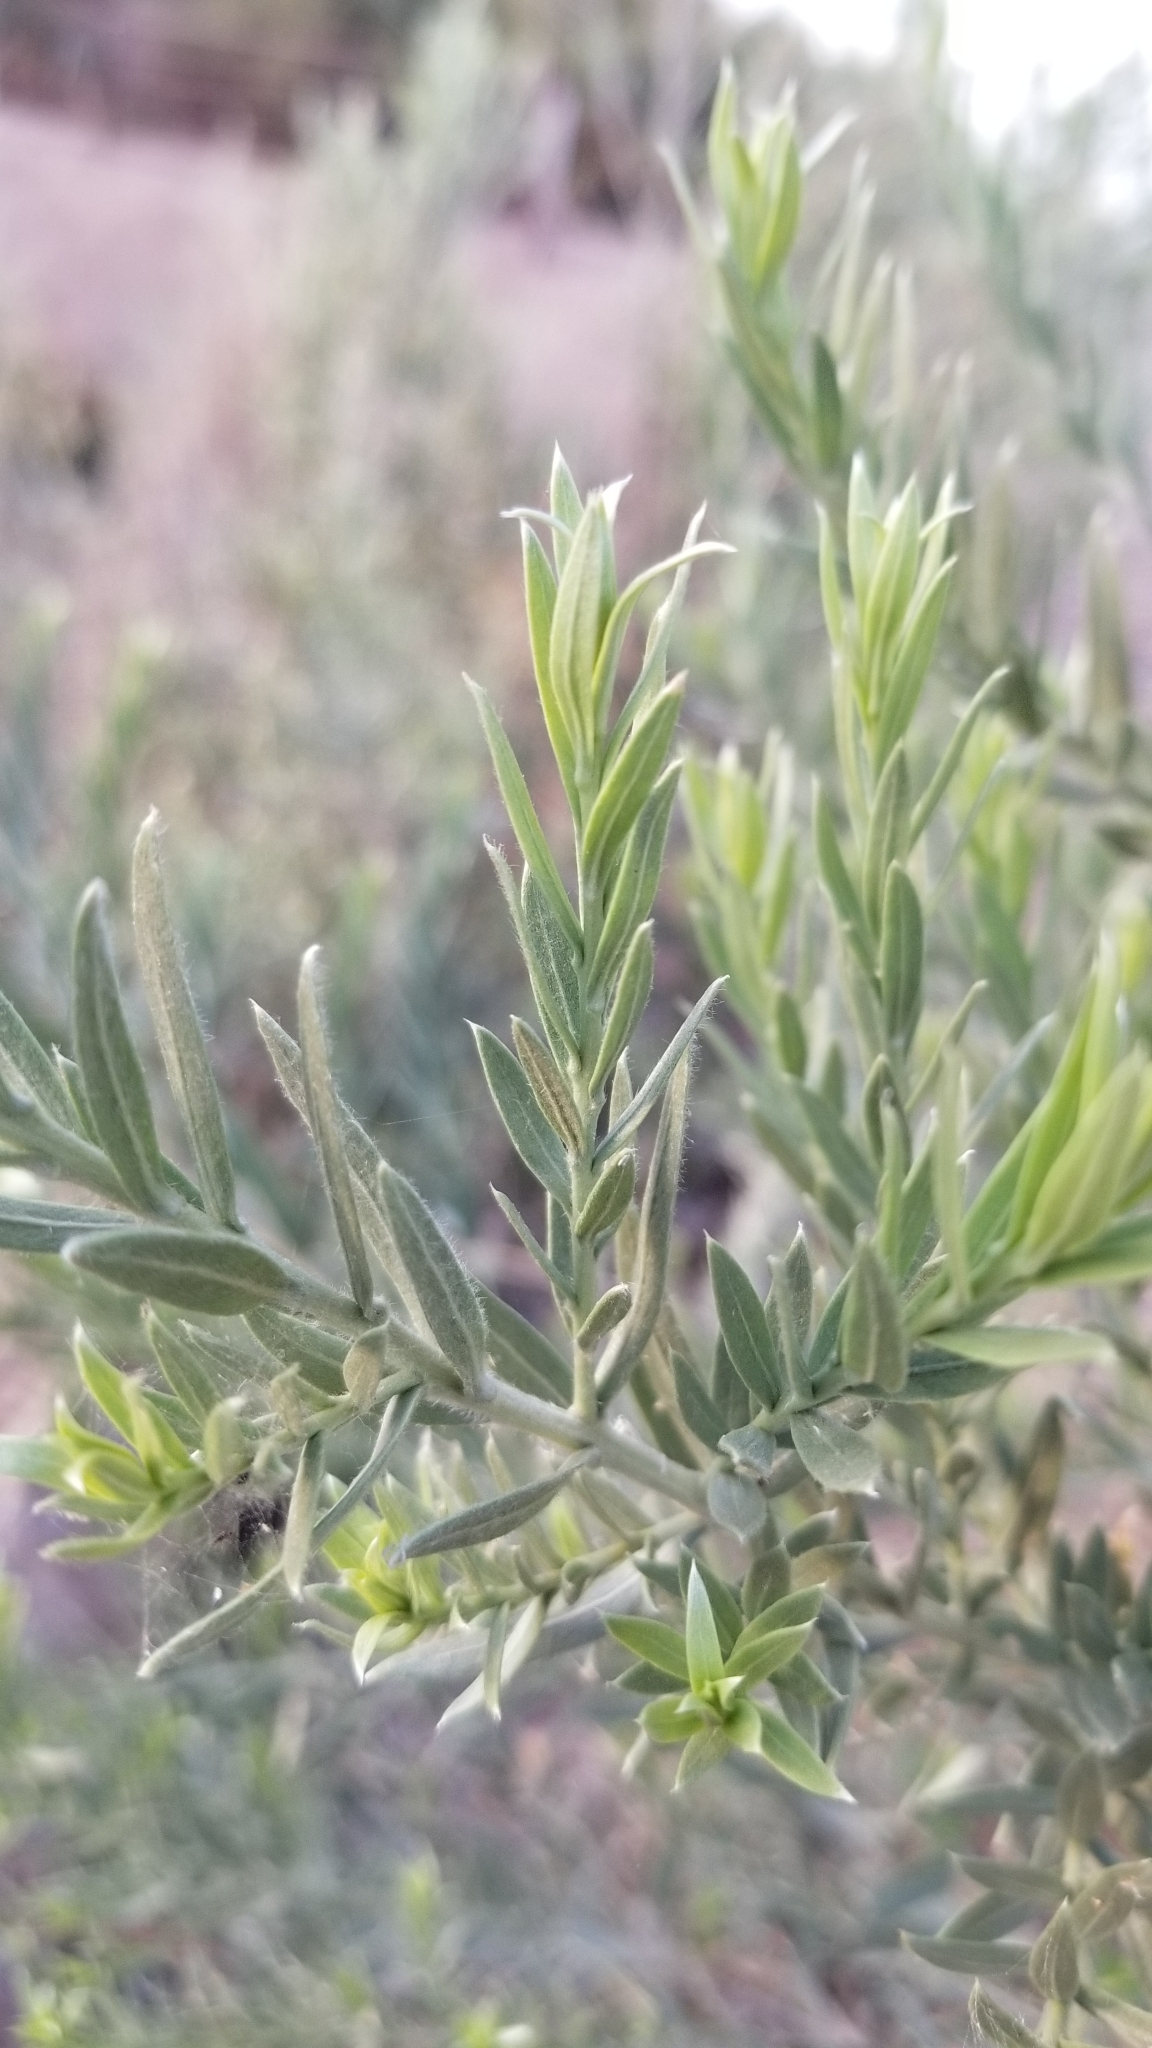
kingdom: Plantae
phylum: Tracheophyta
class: Magnoliopsida
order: Asterales
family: Asteraceae
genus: Pluchea
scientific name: Pluchea sericea
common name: Arrow-weed
